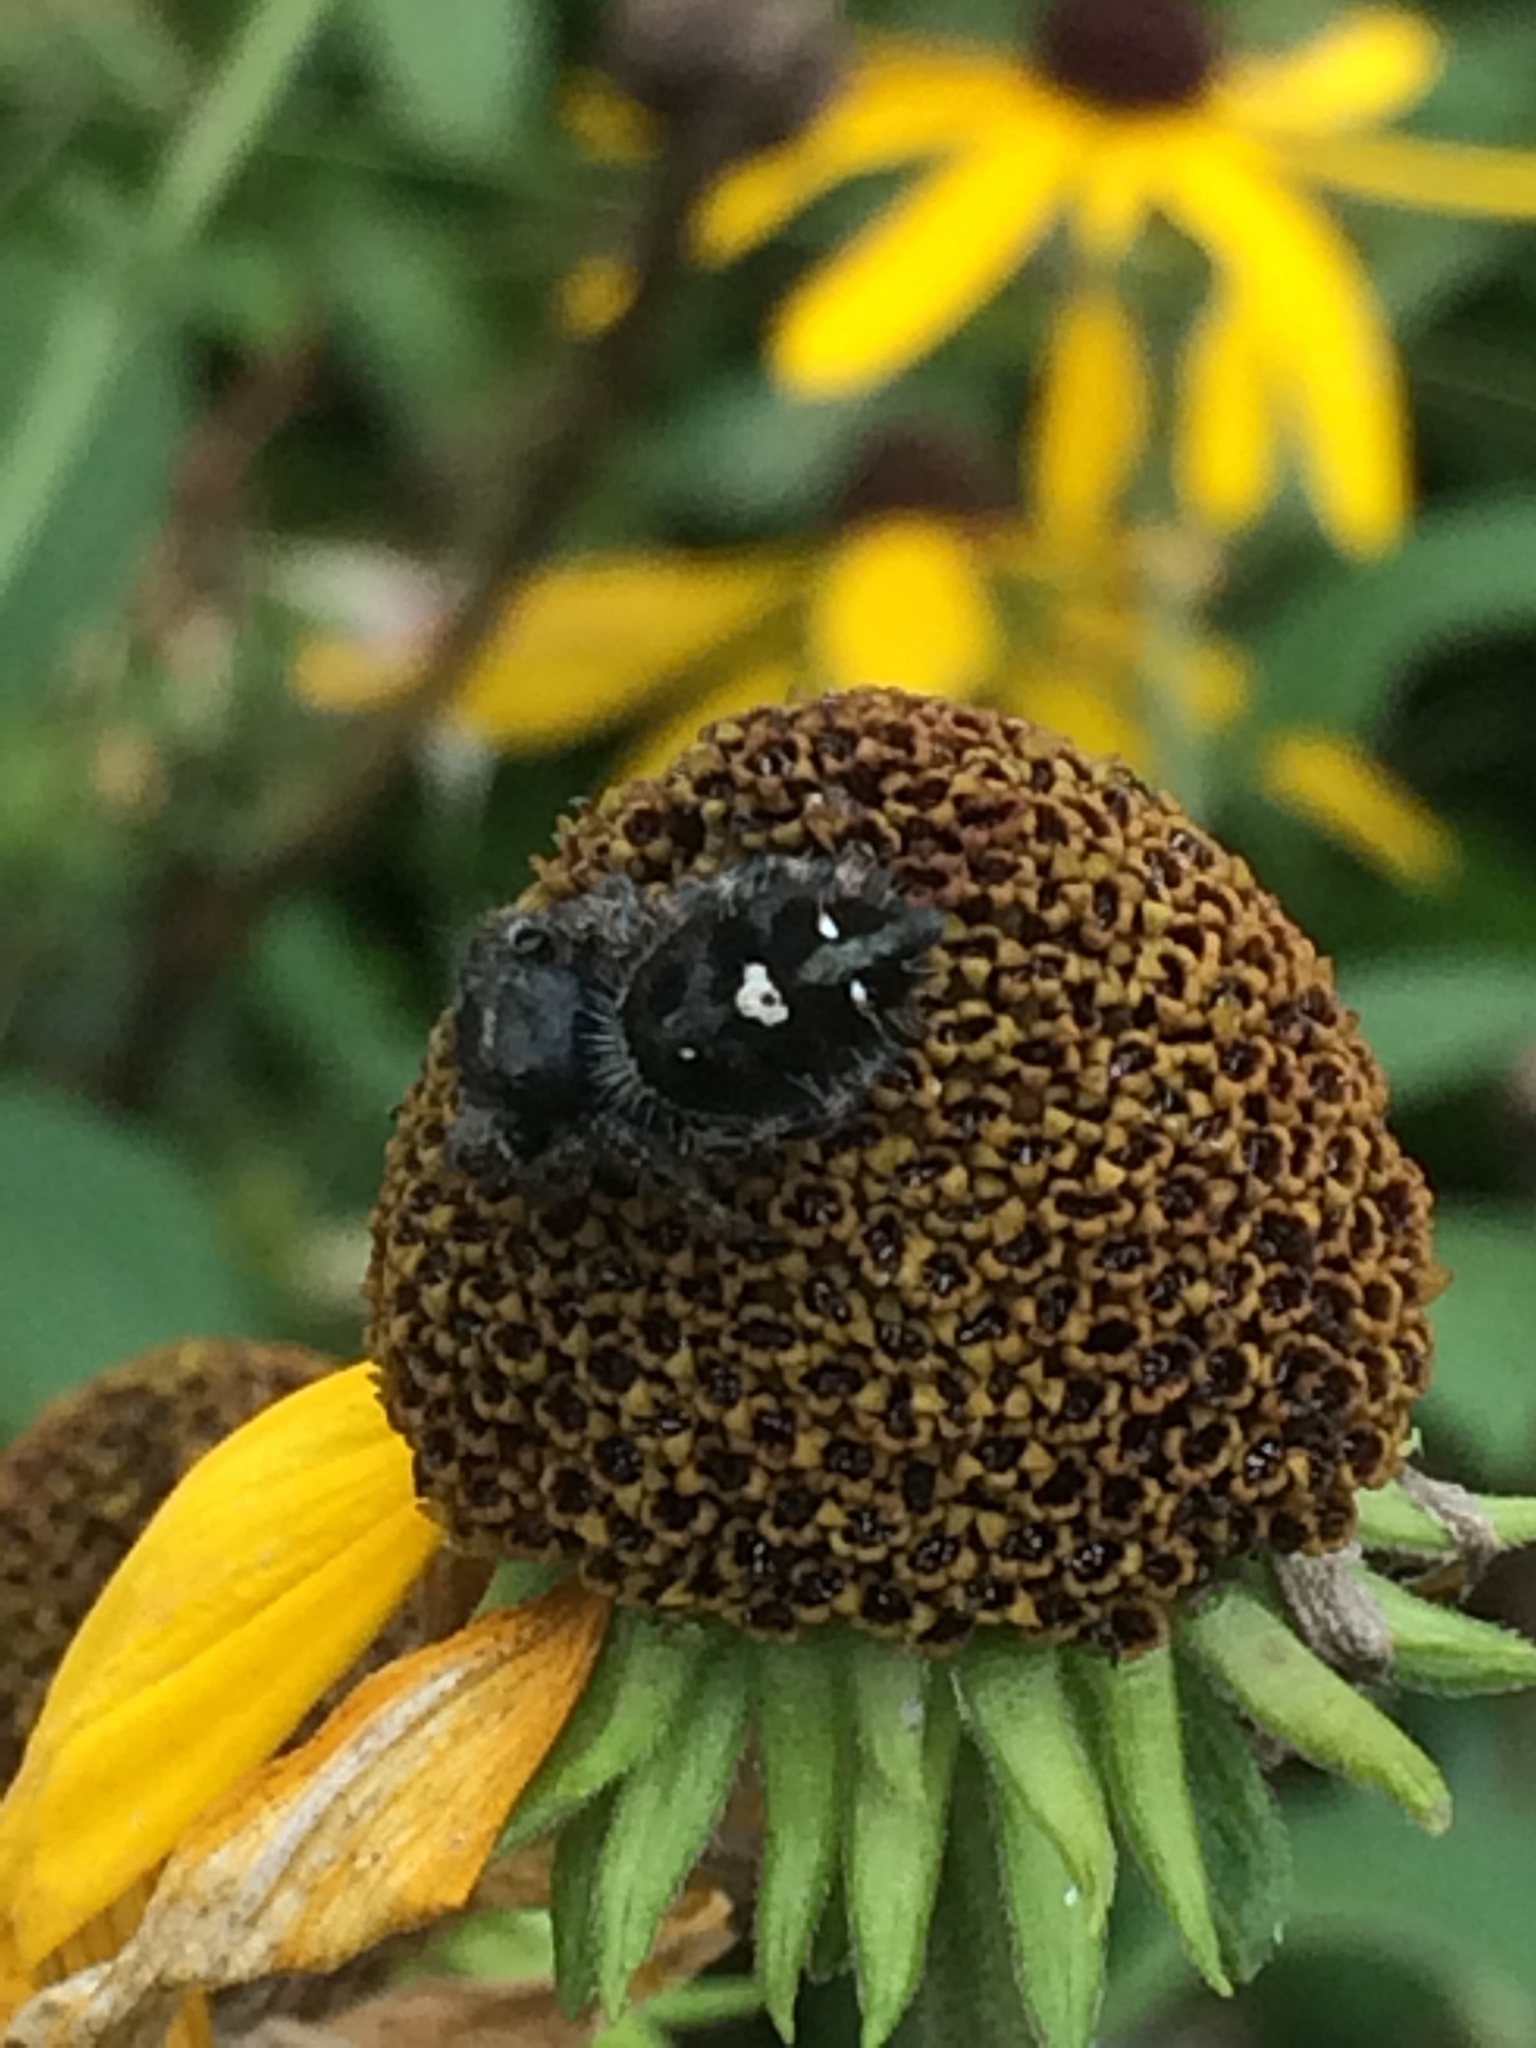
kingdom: Animalia
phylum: Arthropoda
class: Arachnida
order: Araneae
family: Salticidae
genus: Phidippus
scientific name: Phidippus audax
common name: Bold jumper
